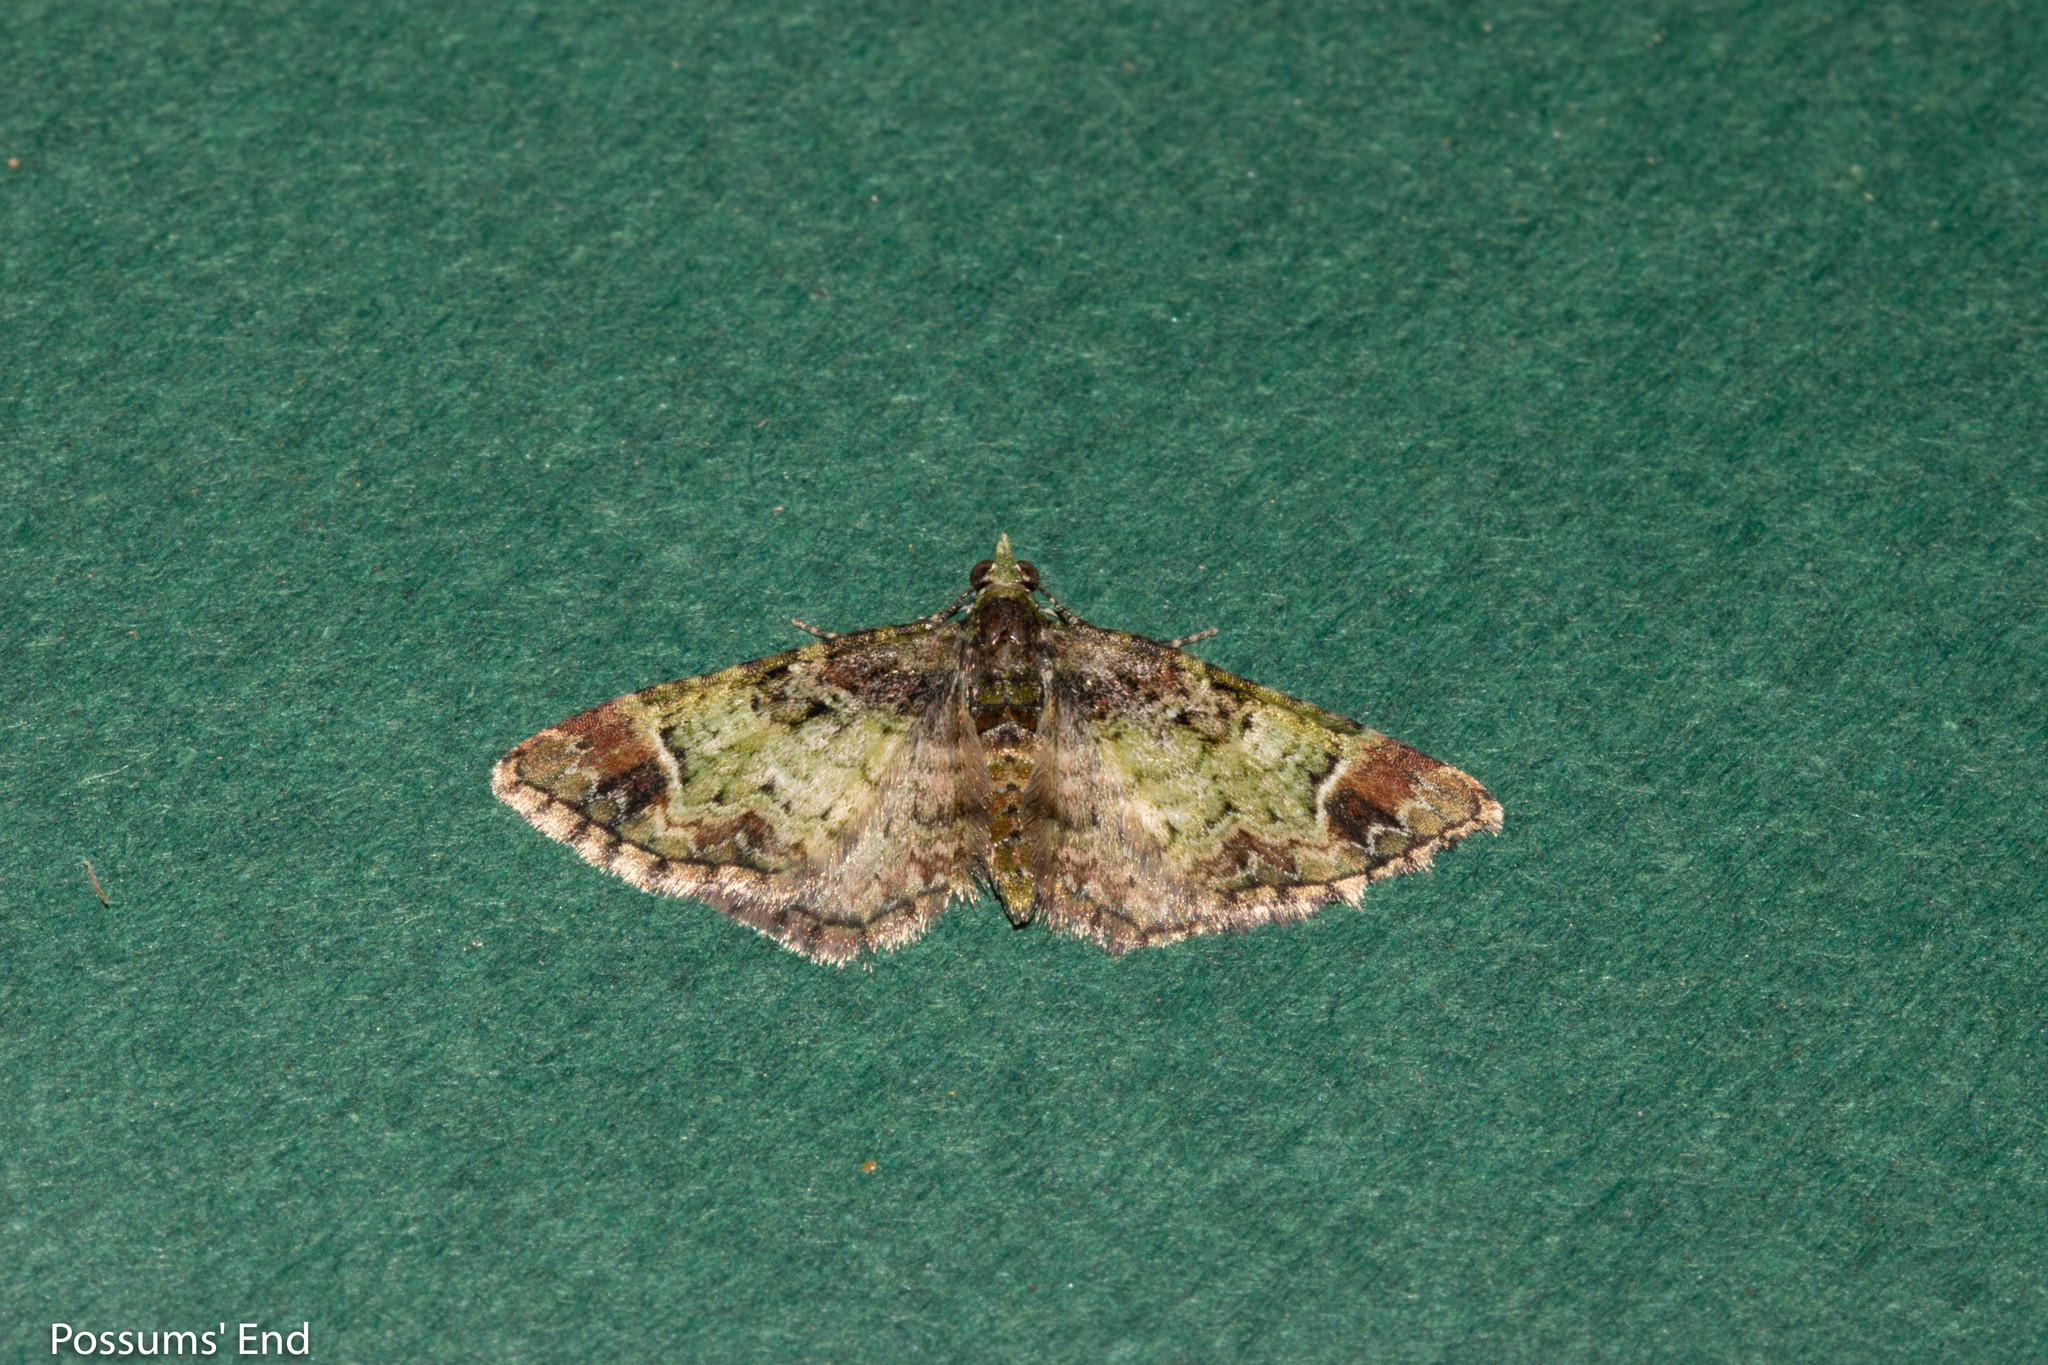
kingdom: Animalia
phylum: Arthropoda
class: Insecta
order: Lepidoptera
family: Geometridae
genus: Pasiphila
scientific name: Pasiphila sandycias
